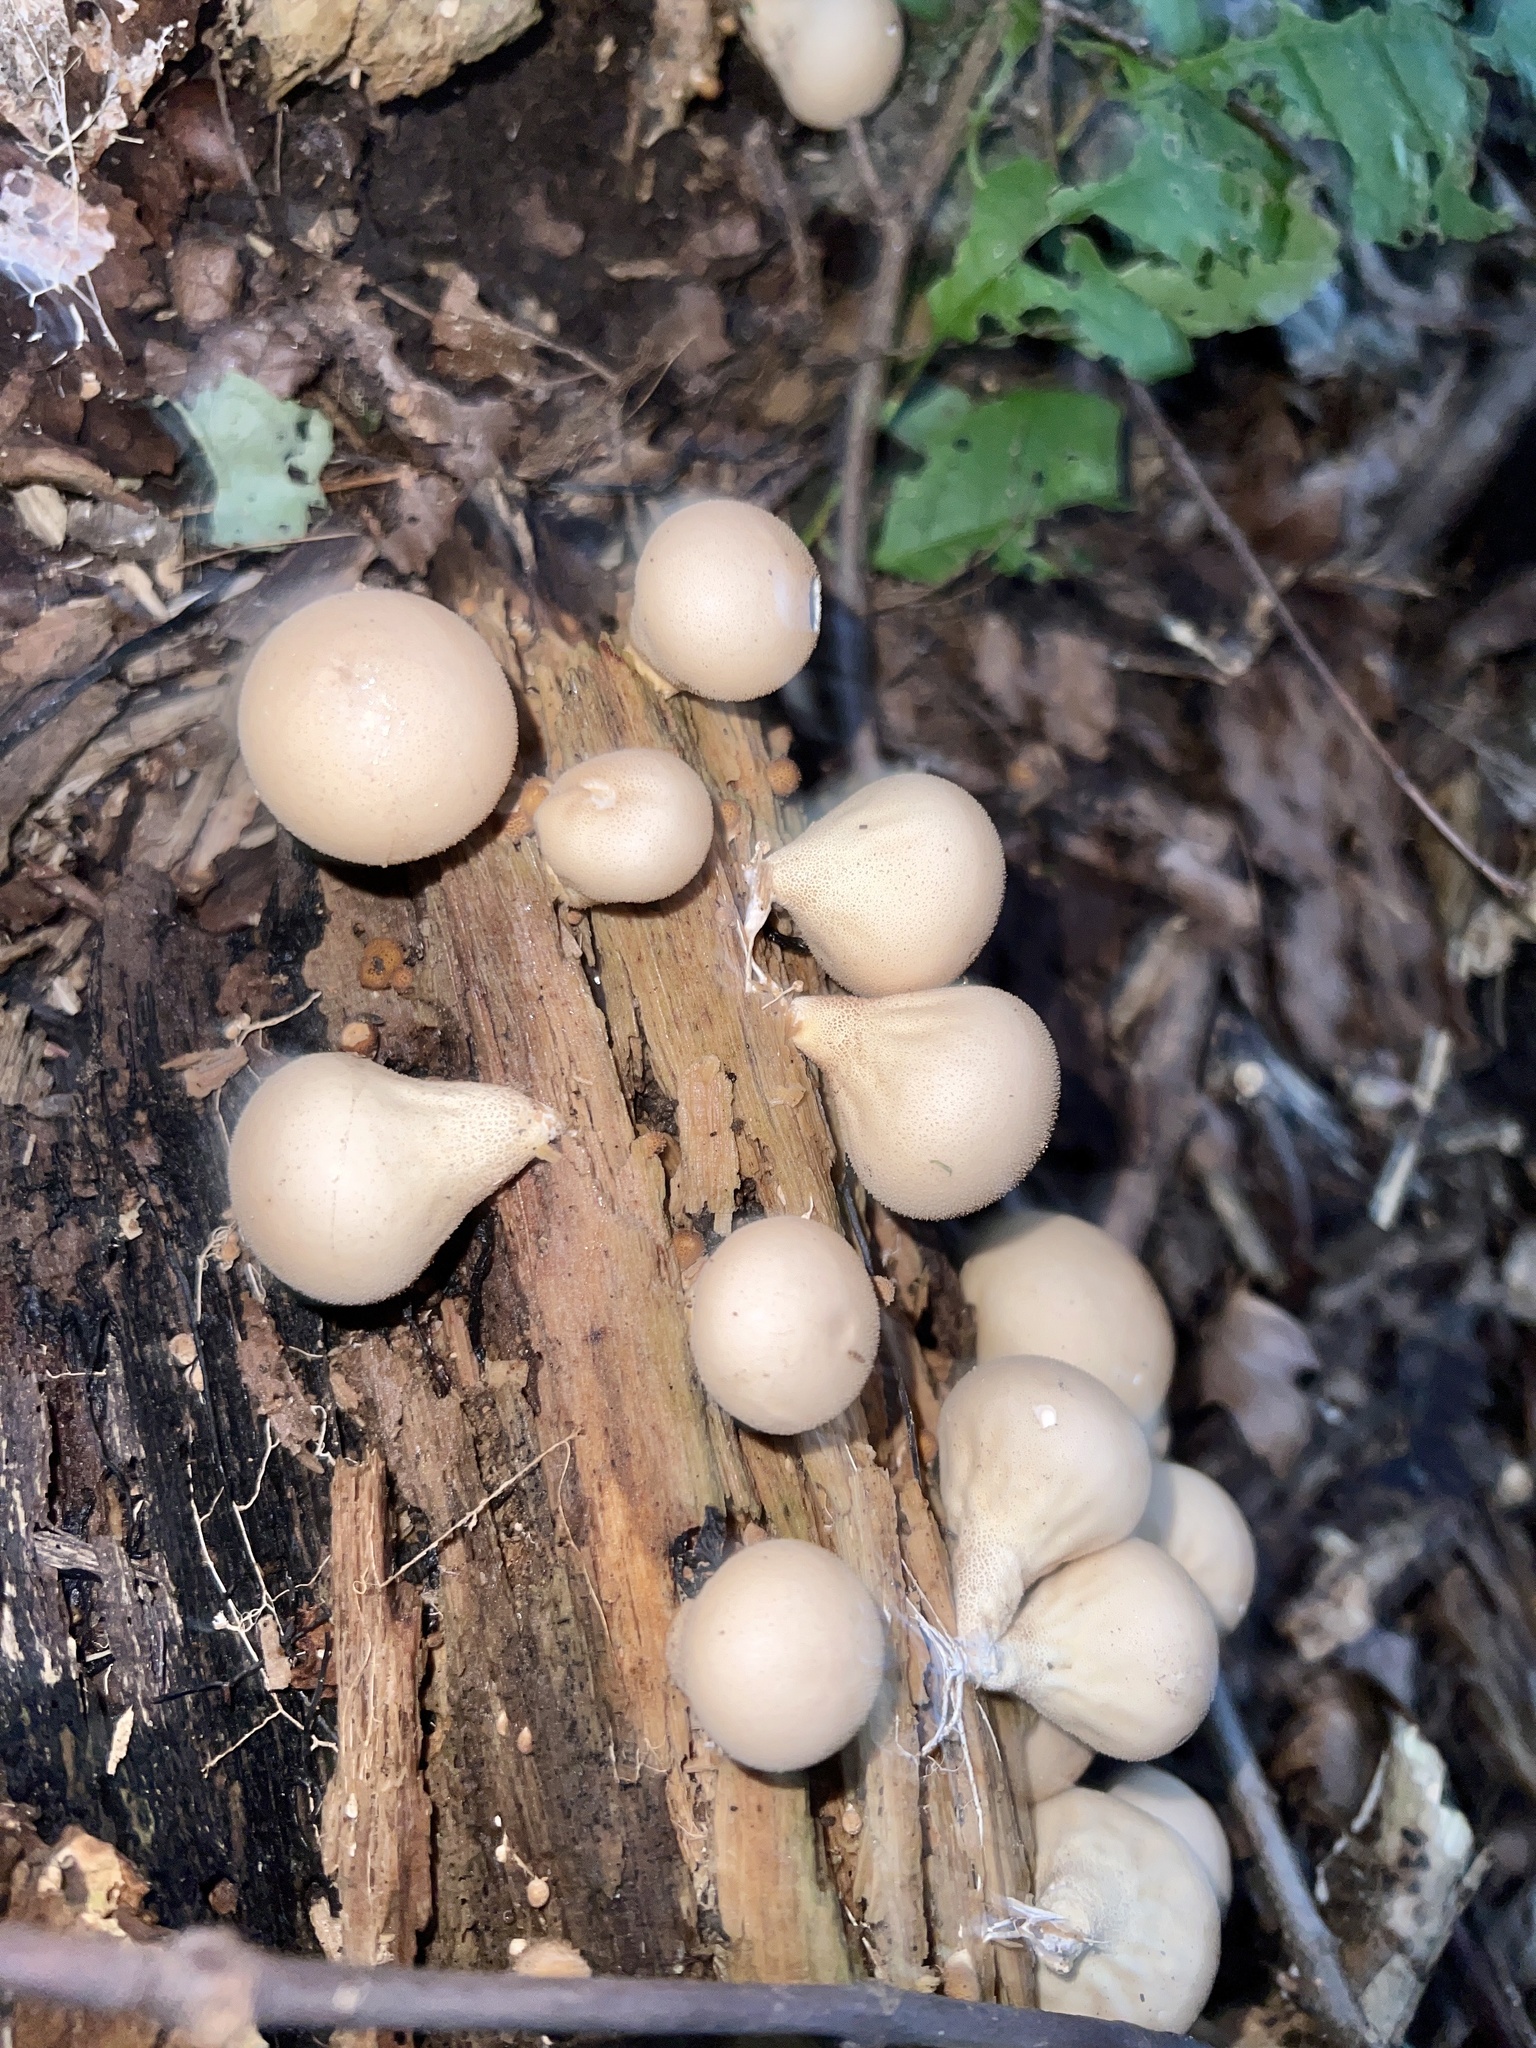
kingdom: Fungi
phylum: Basidiomycota
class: Agaricomycetes
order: Agaricales
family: Lycoperdaceae
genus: Apioperdon
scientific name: Apioperdon pyriforme
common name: Pear-shaped puffball
